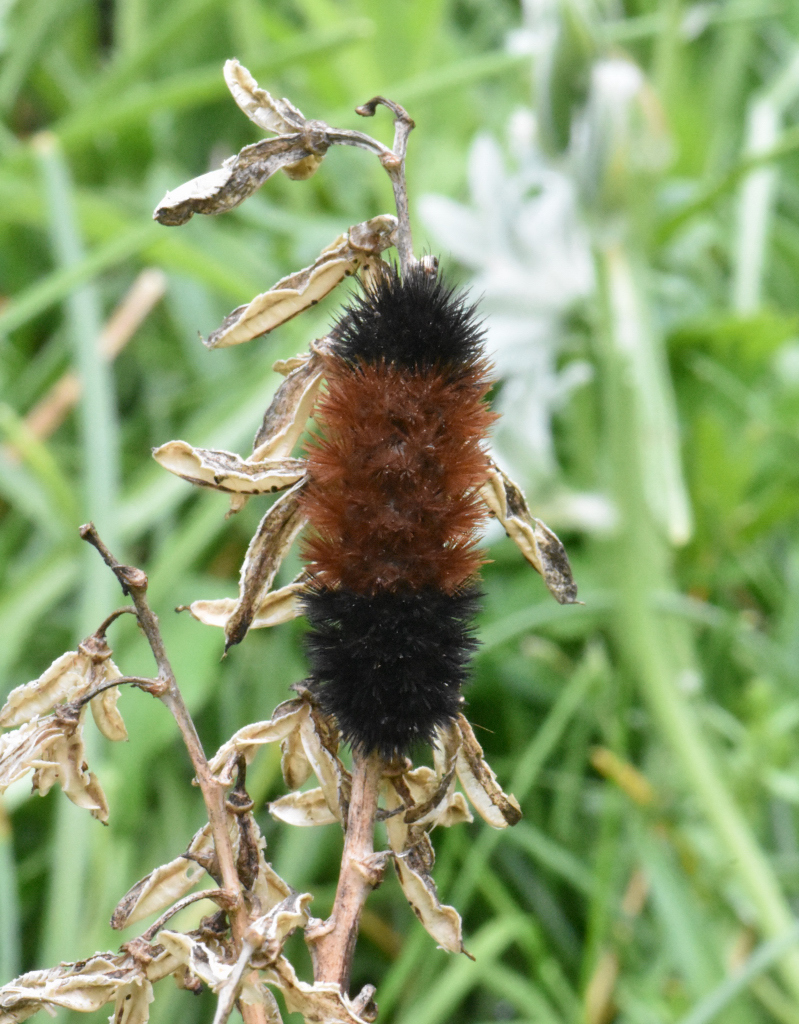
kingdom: Animalia
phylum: Arthropoda
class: Insecta
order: Lepidoptera
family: Erebidae
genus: Pyrrharctia
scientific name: Pyrrharctia isabella
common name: Isabella tiger moth
